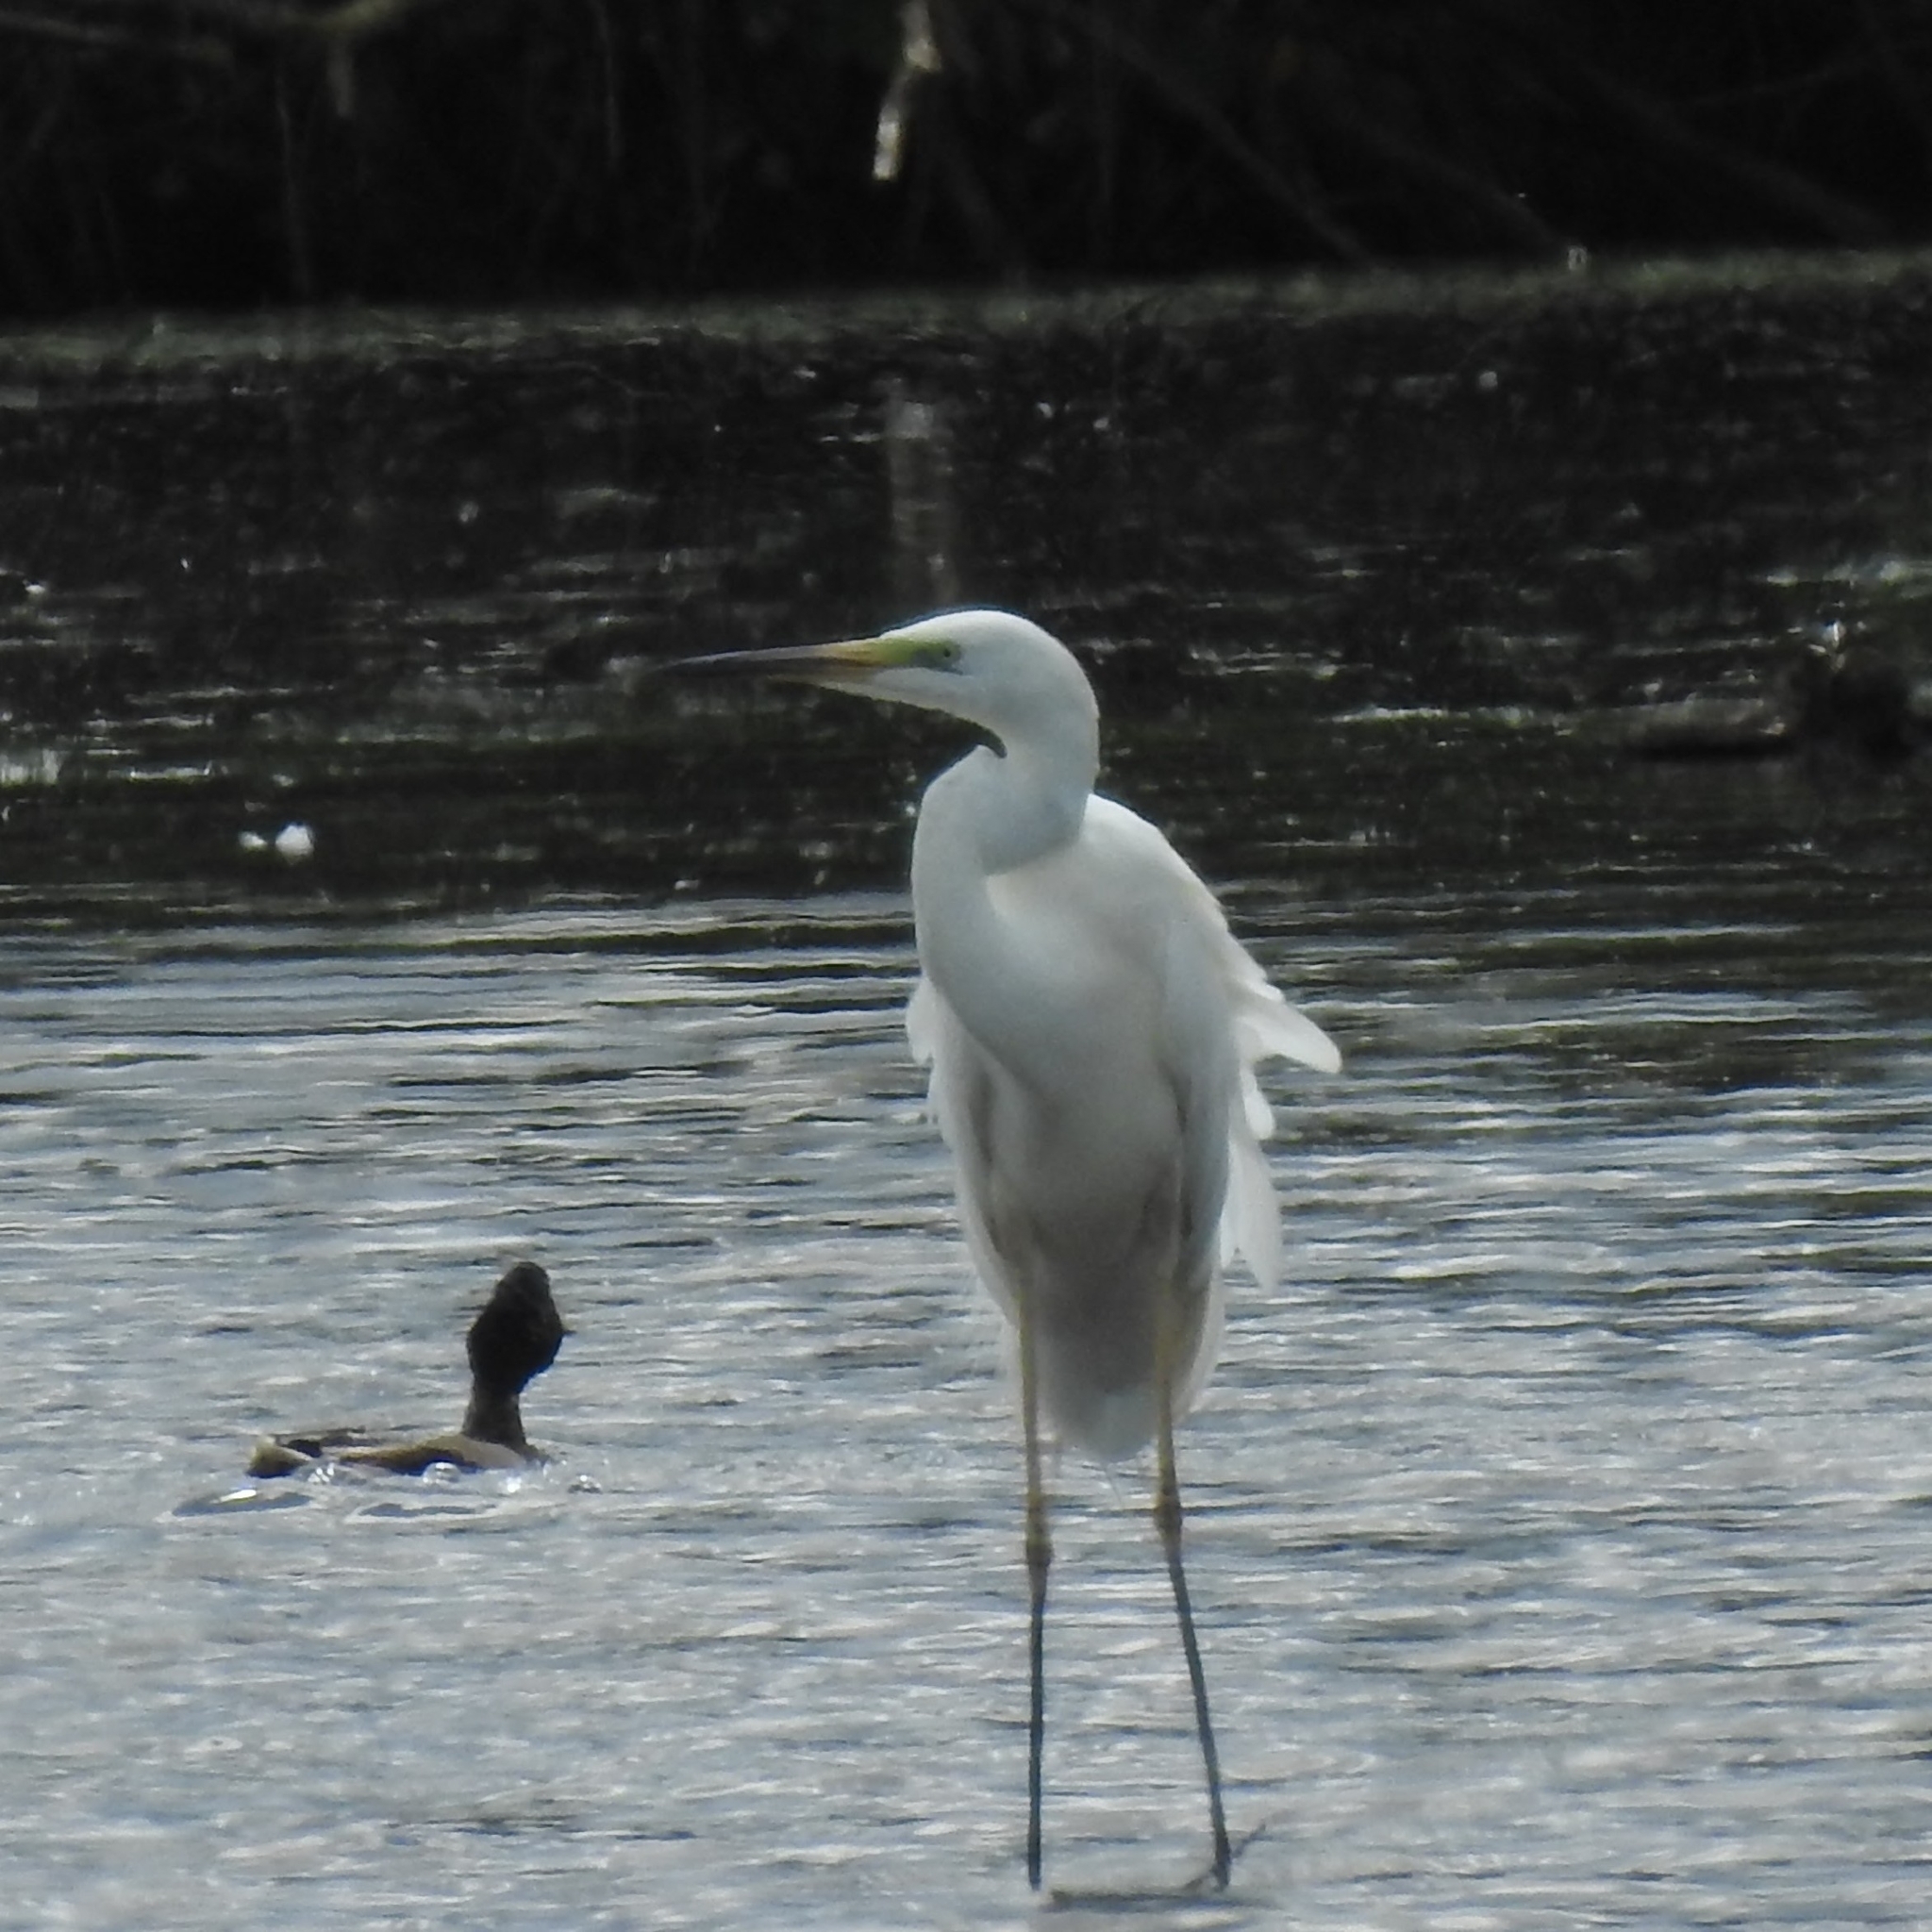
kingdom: Animalia
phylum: Chordata
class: Aves
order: Pelecaniformes
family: Ardeidae
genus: Ardea
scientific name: Ardea alba
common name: Great egret
